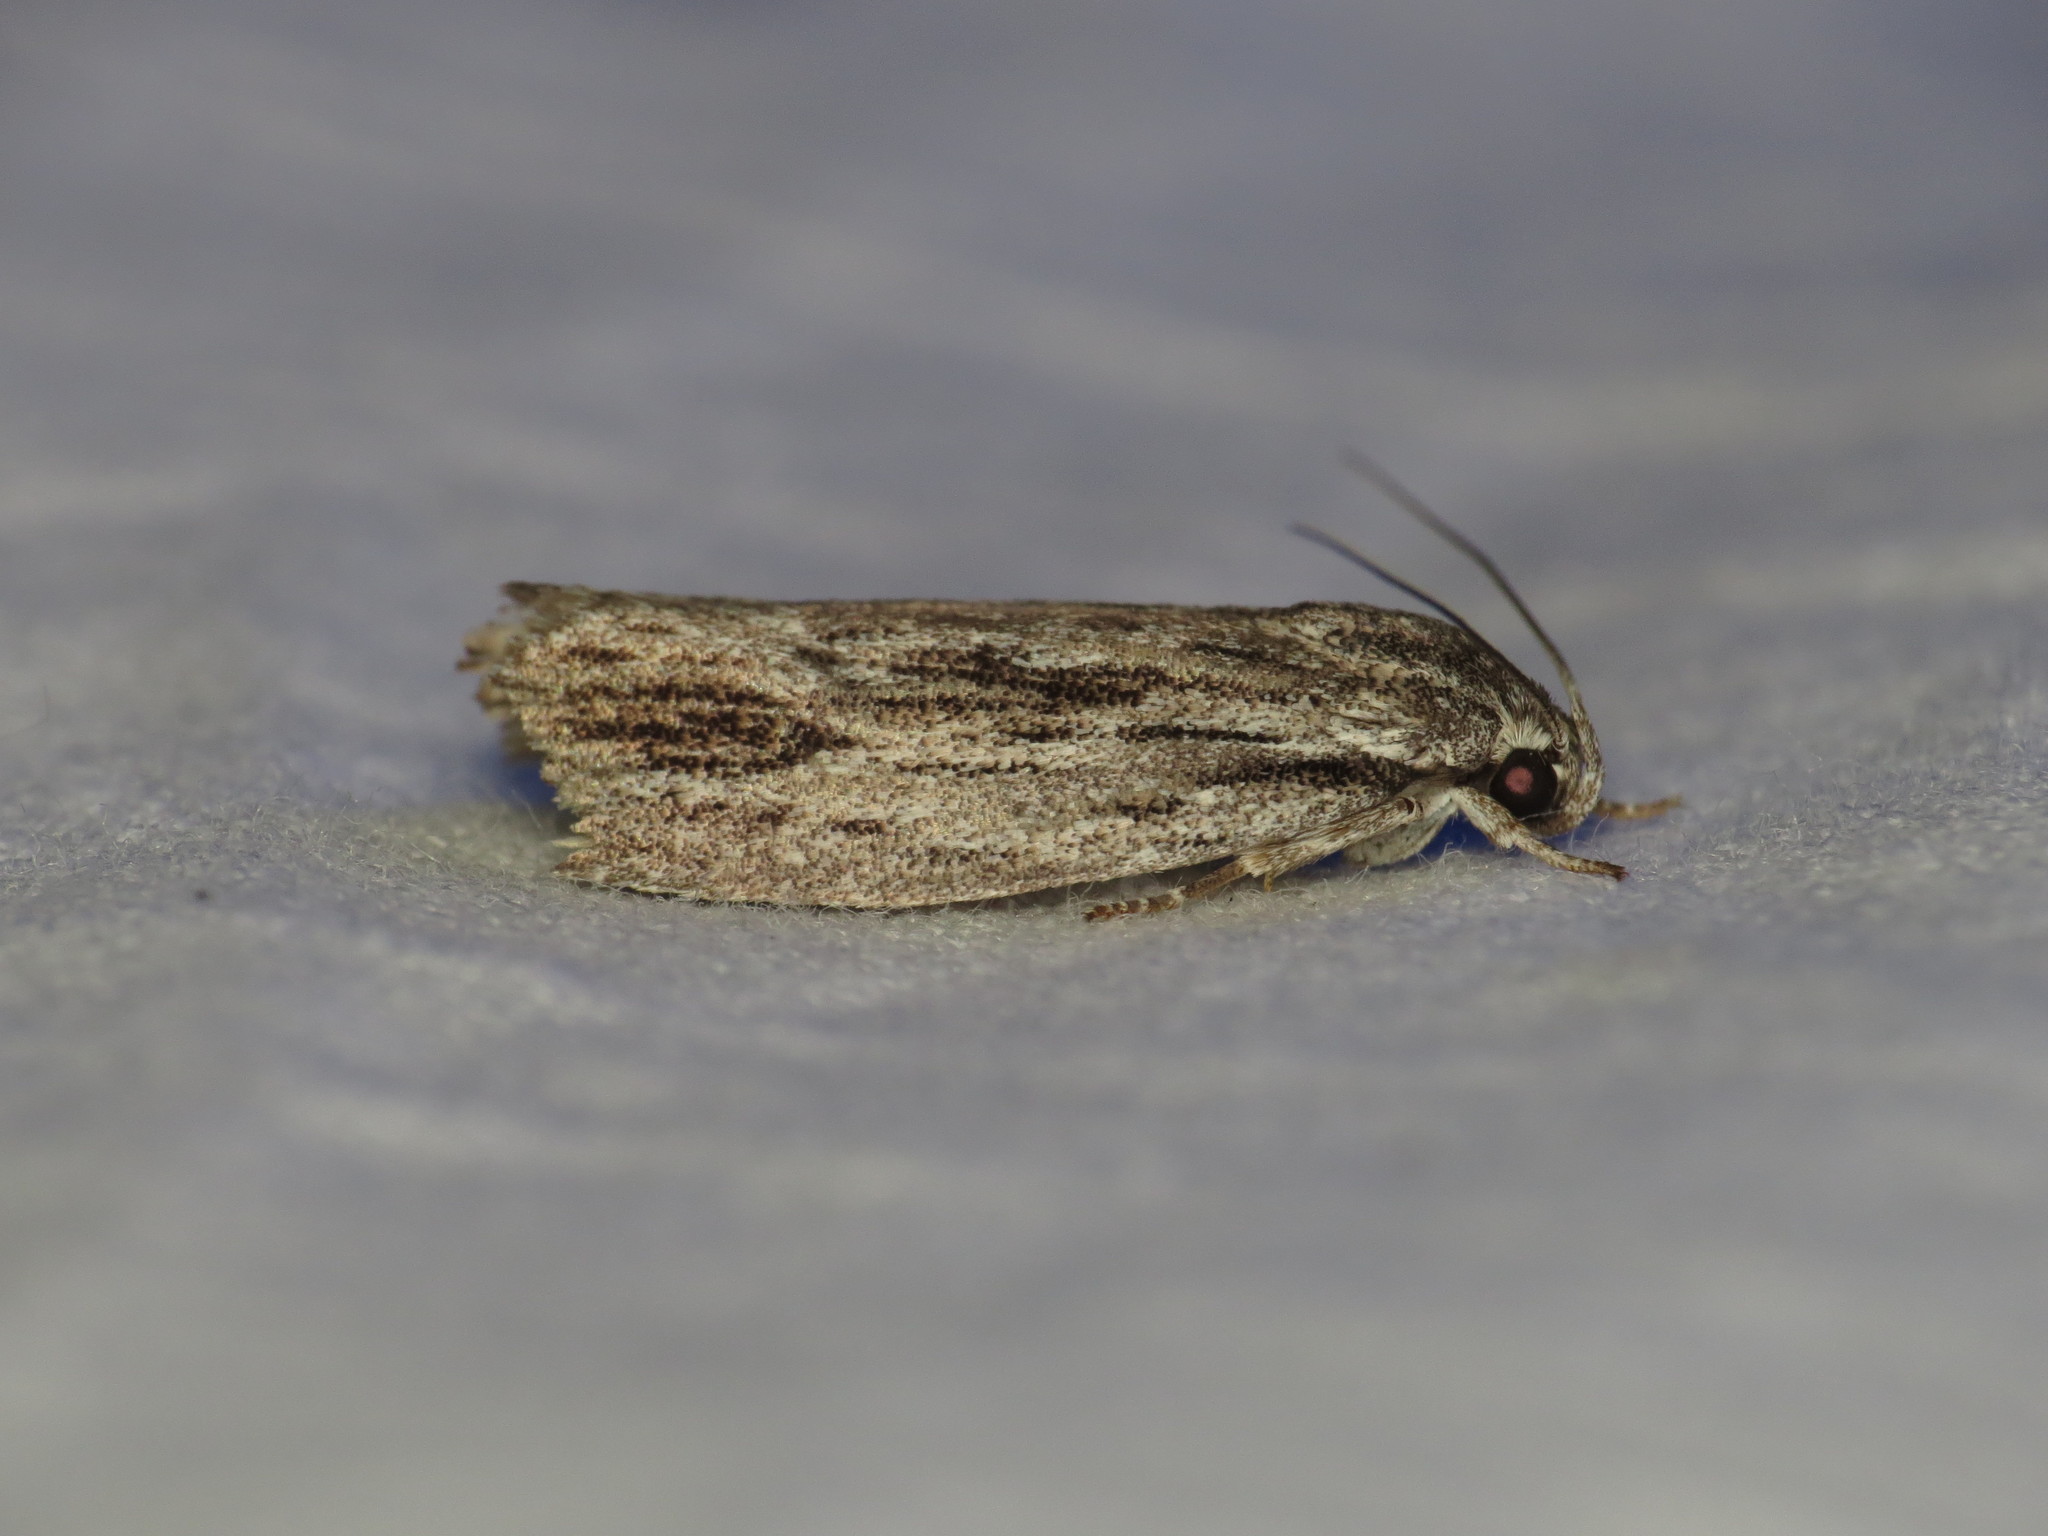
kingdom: Animalia
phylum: Arthropoda
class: Insecta
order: Lepidoptera
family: Depressariidae
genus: Agriophara
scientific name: Agriophara platyscia
